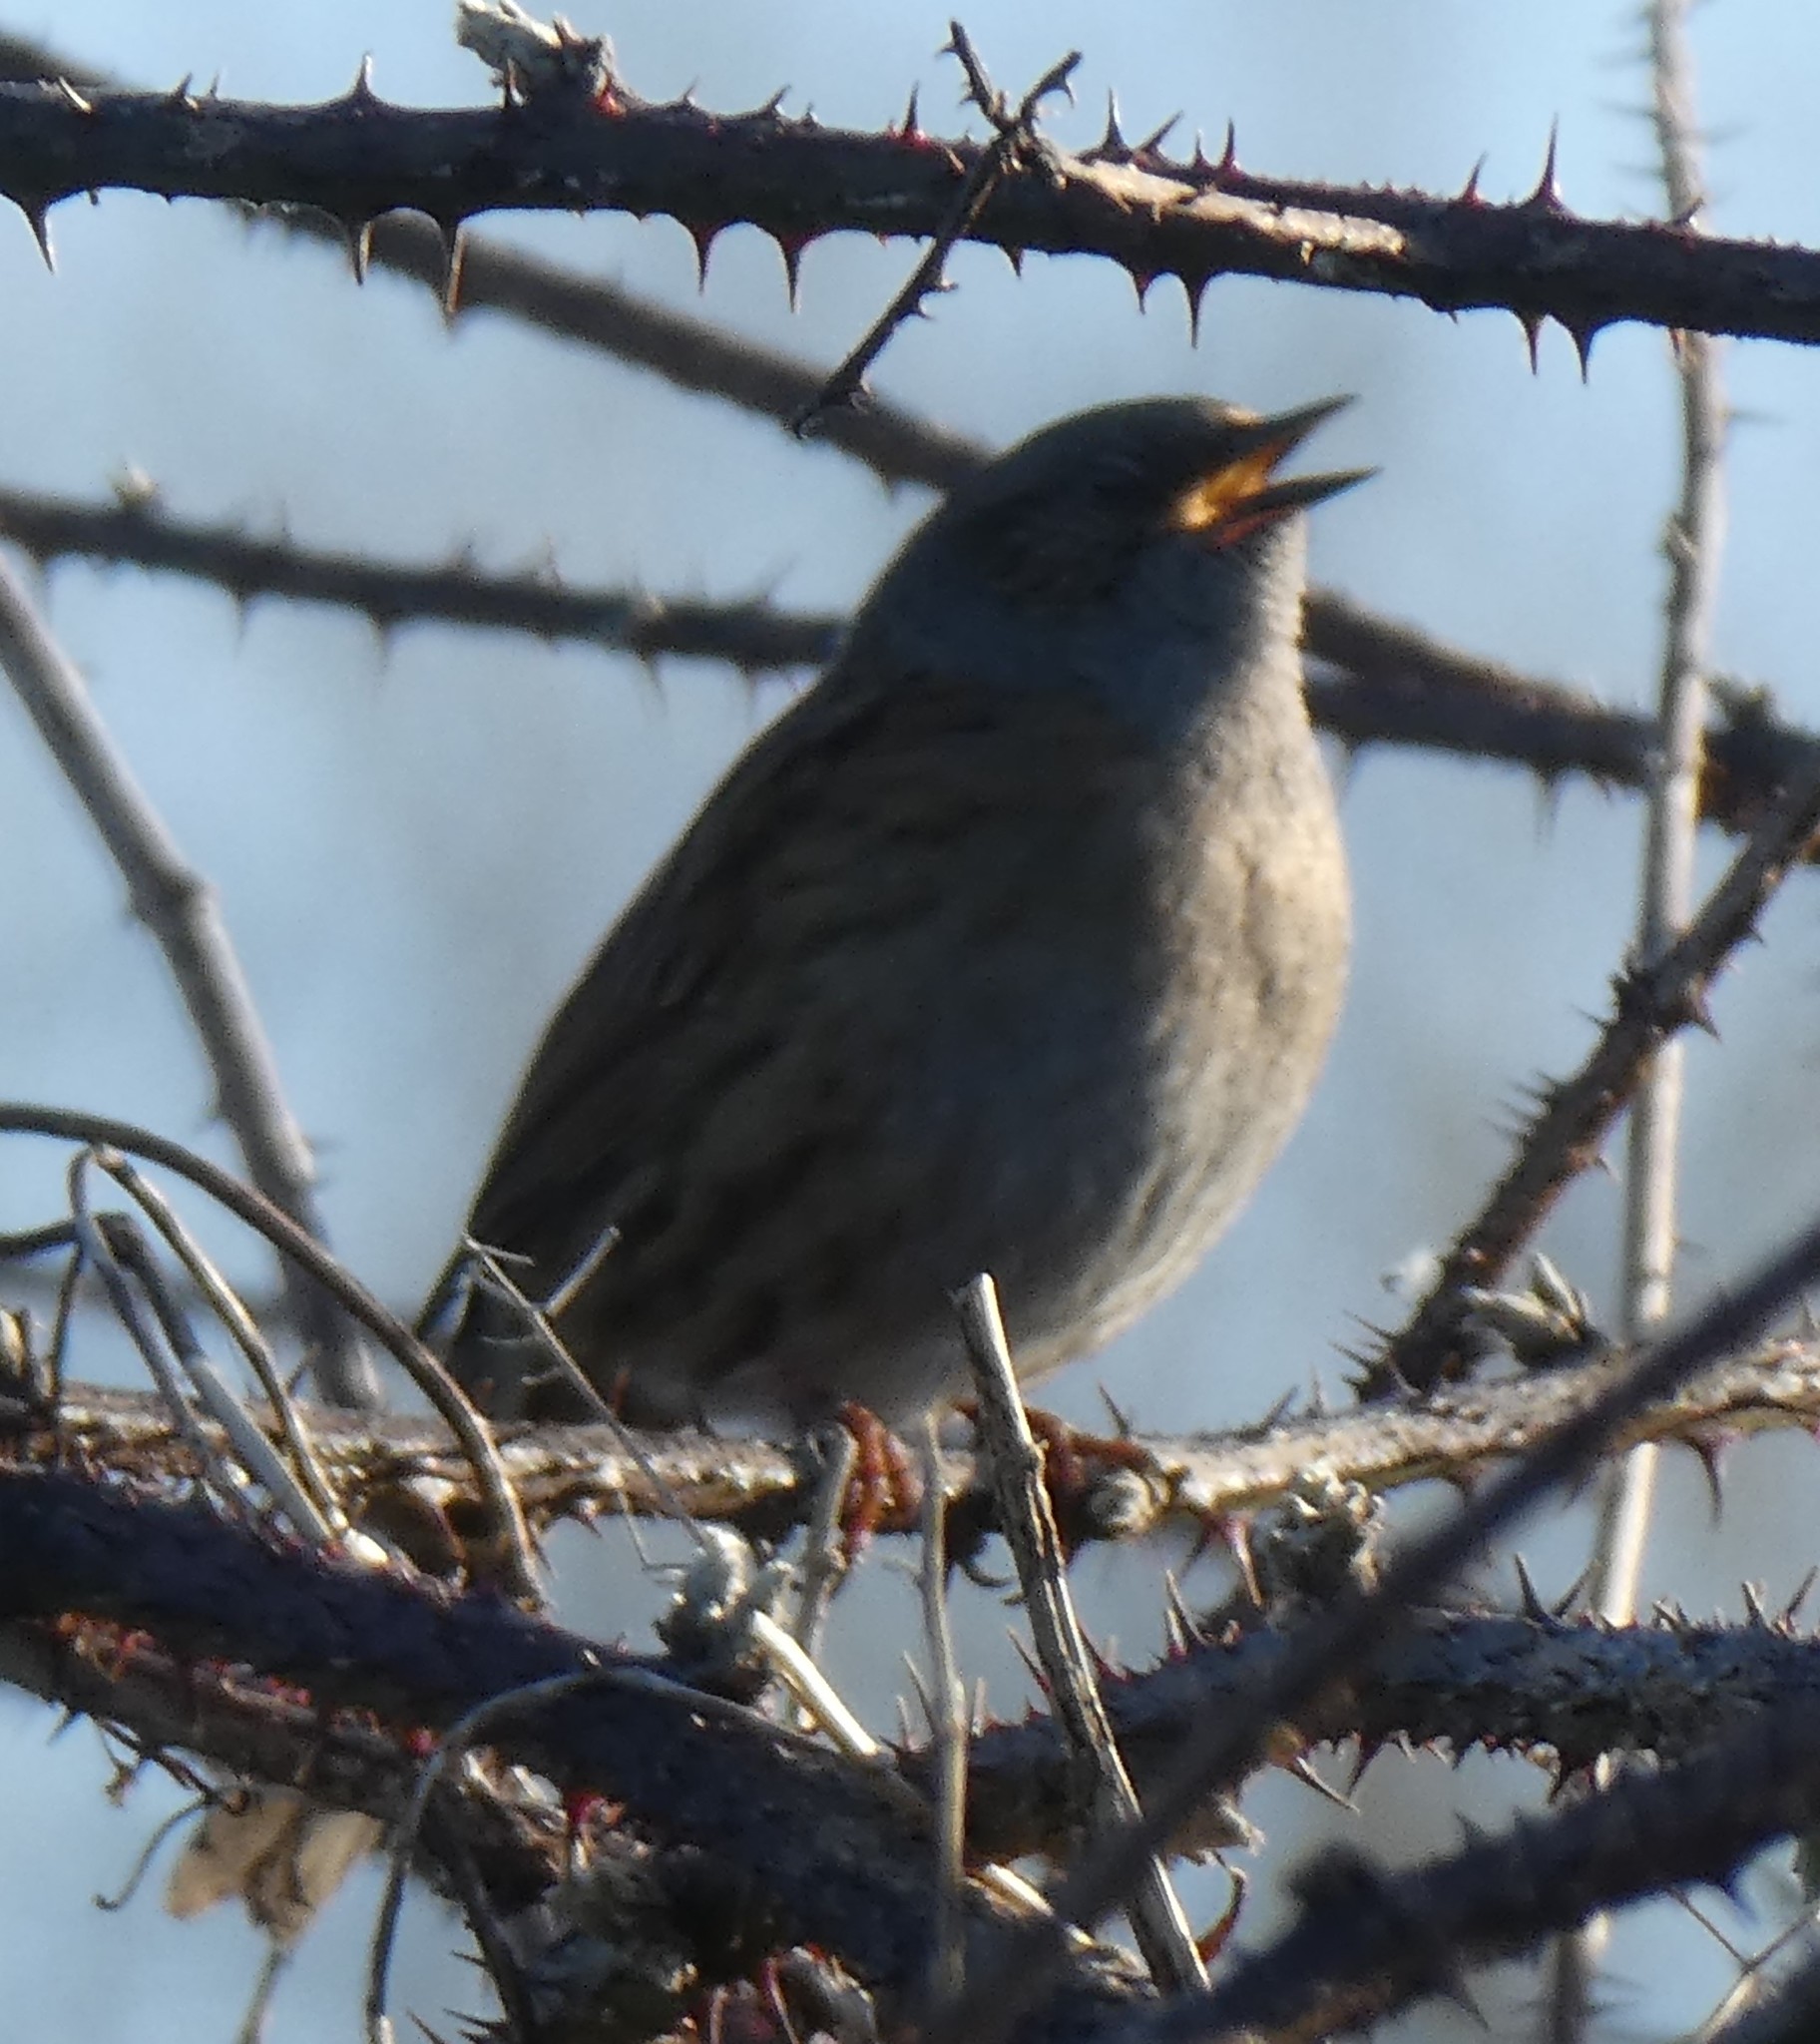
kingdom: Animalia
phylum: Chordata
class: Aves
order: Passeriformes
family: Prunellidae
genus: Prunella
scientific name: Prunella modularis
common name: Dunnock
